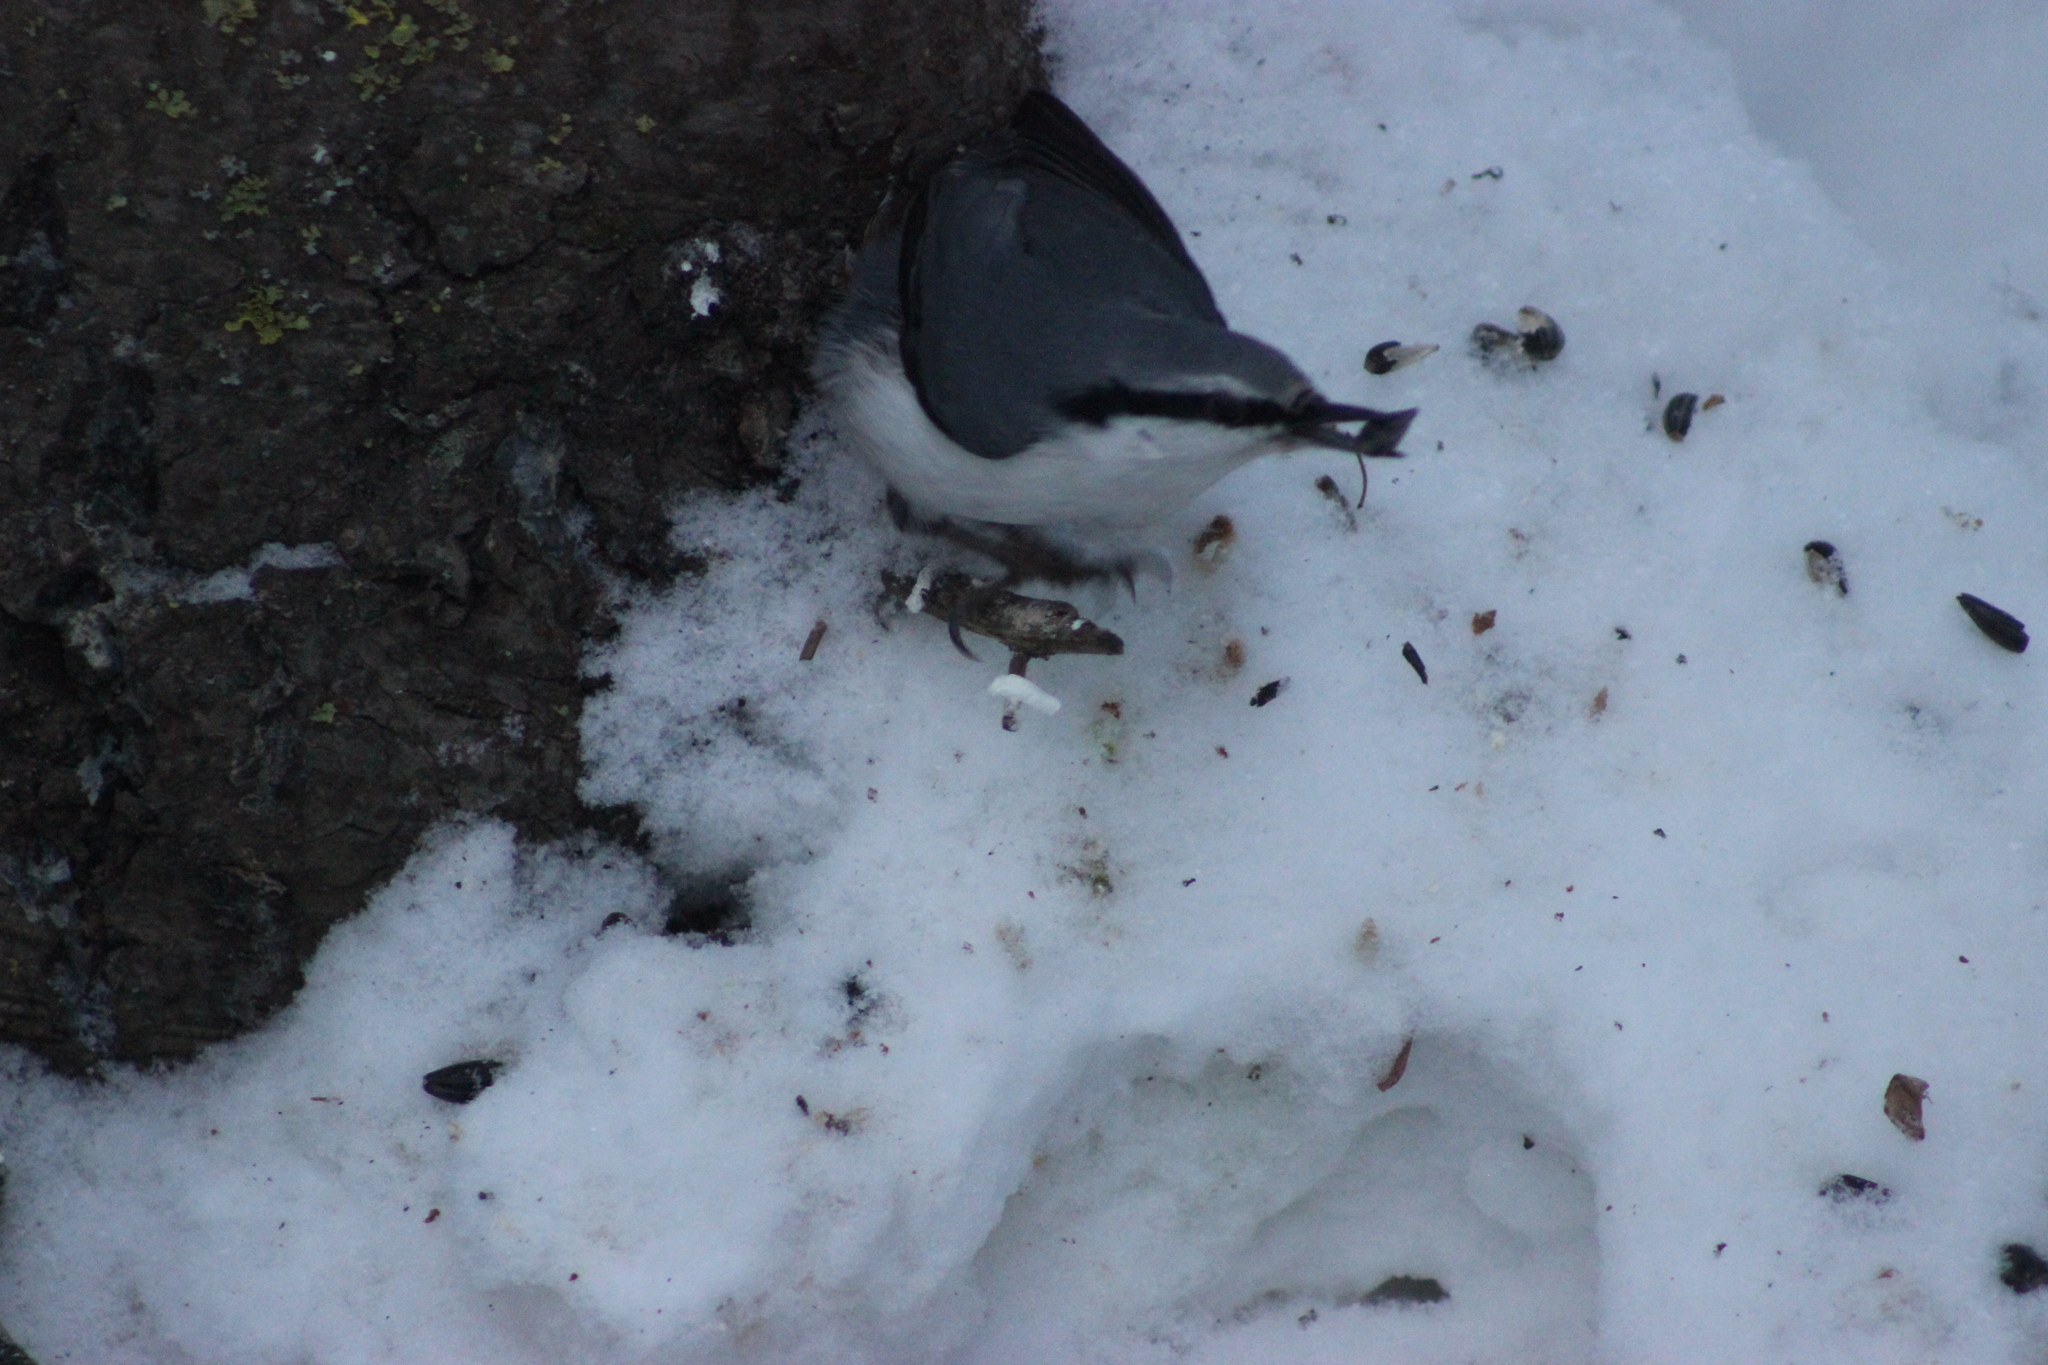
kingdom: Animalia
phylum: Chordata
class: Aves
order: Passeriformes
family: Sittidae
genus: Sitta
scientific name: Sitta europaea
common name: Eurasian nuthatch
